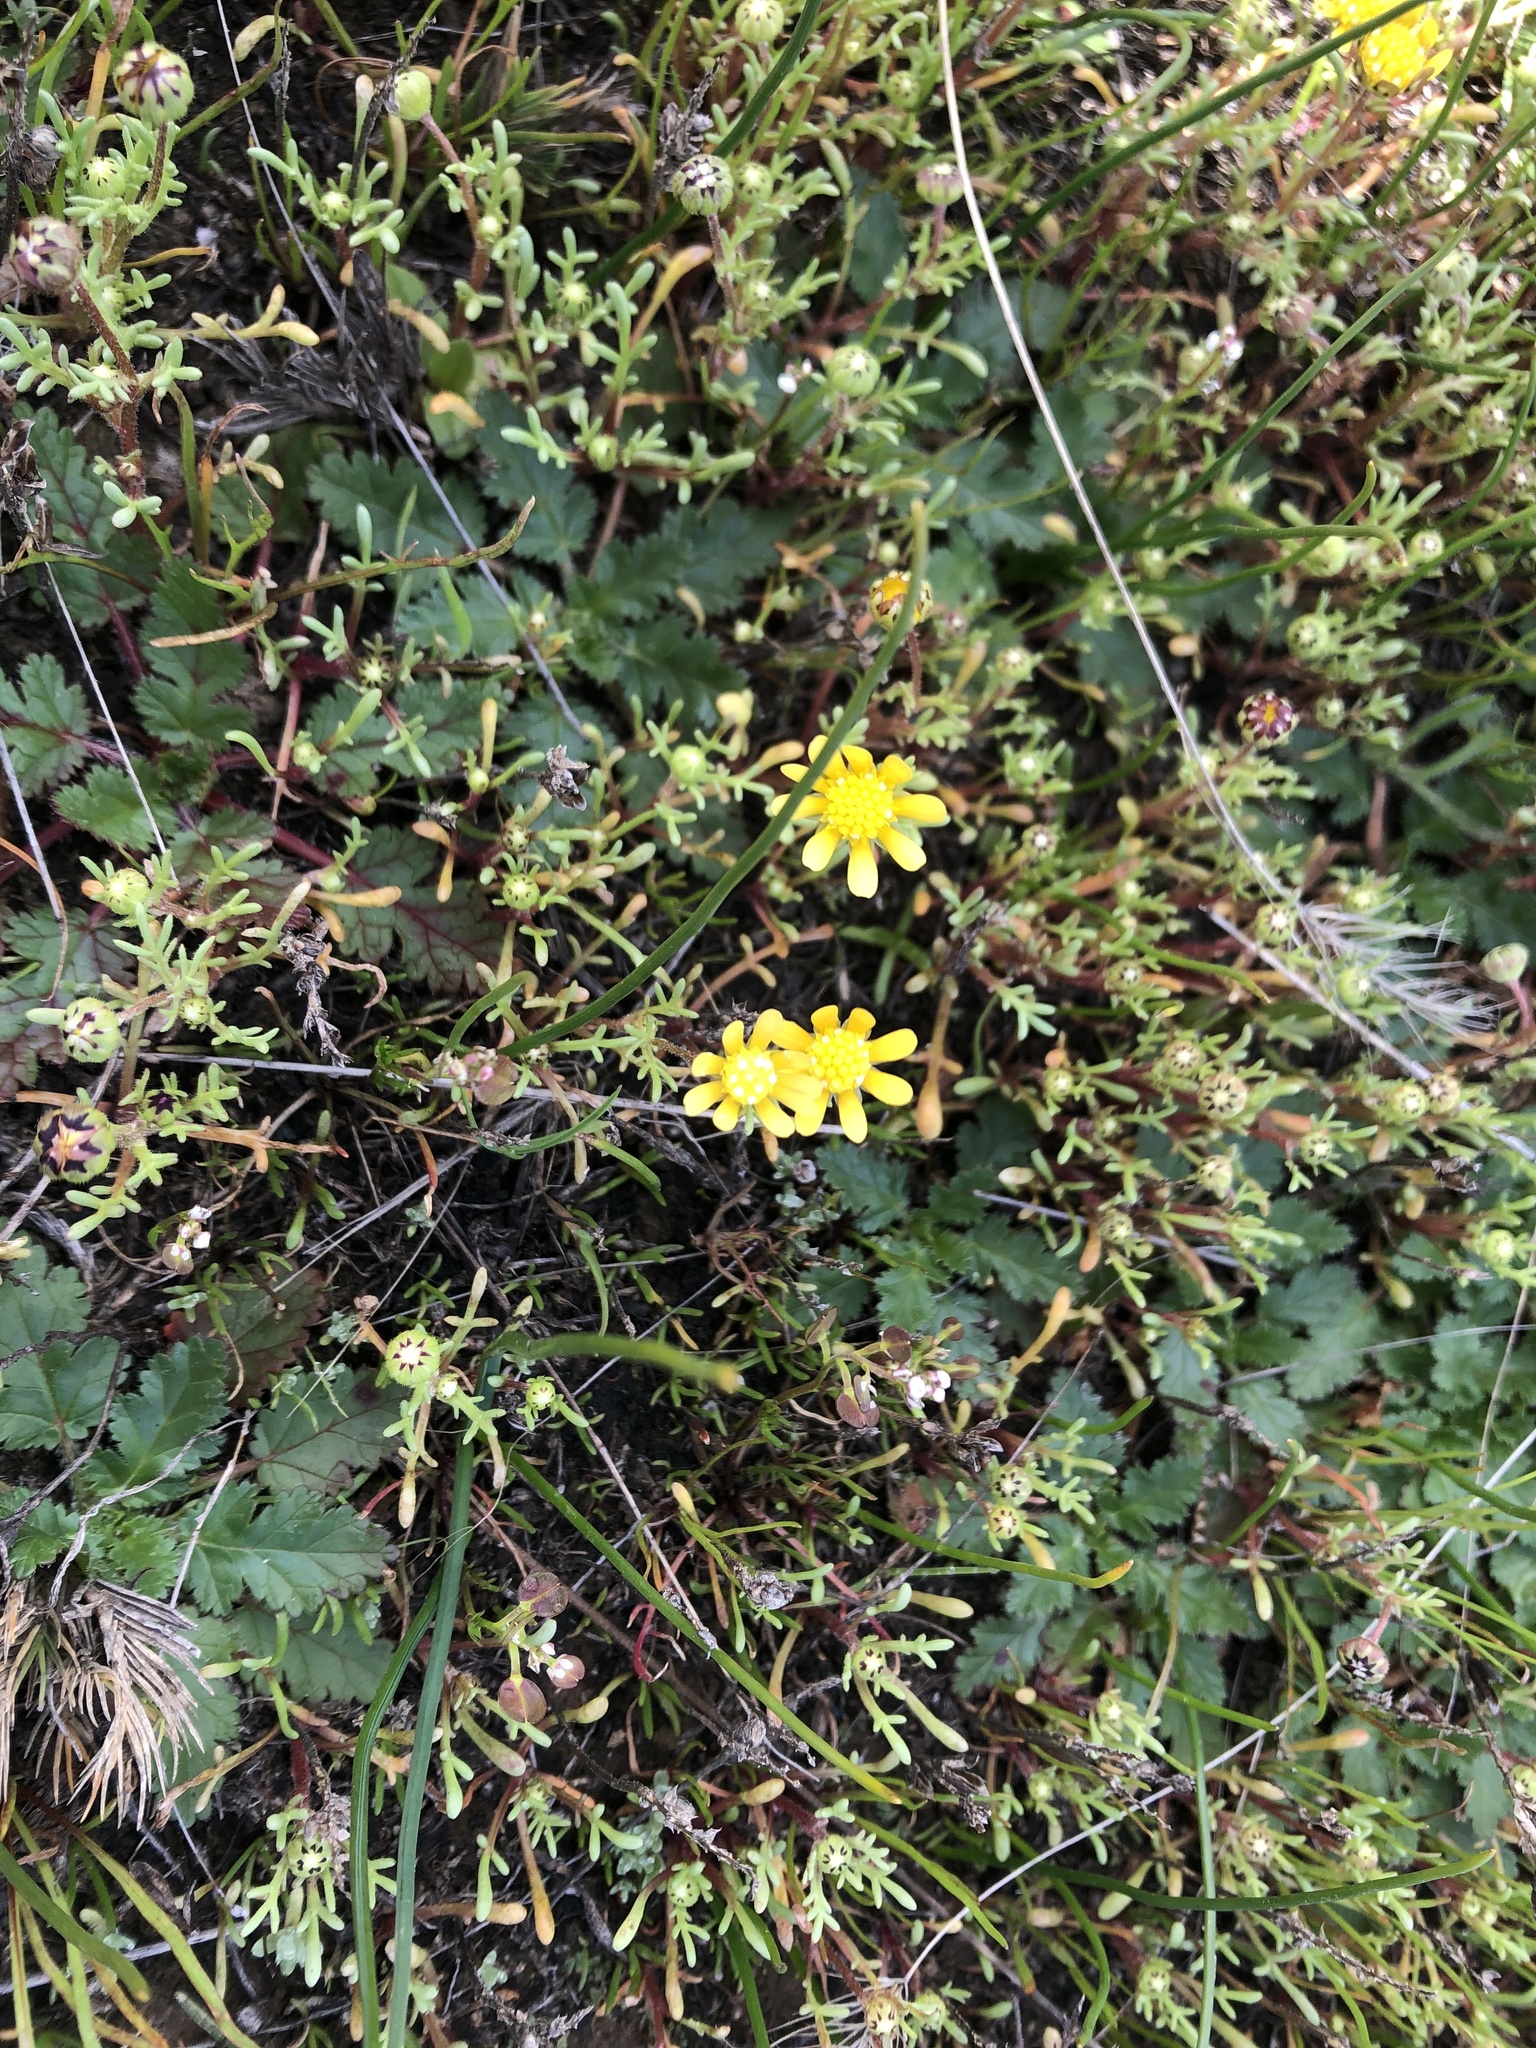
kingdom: Plantae
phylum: Tracheophyta
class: Magnoliopsida
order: Asterales
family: Asteraceae
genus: Blennosperma
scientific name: Blennosperma nanum
